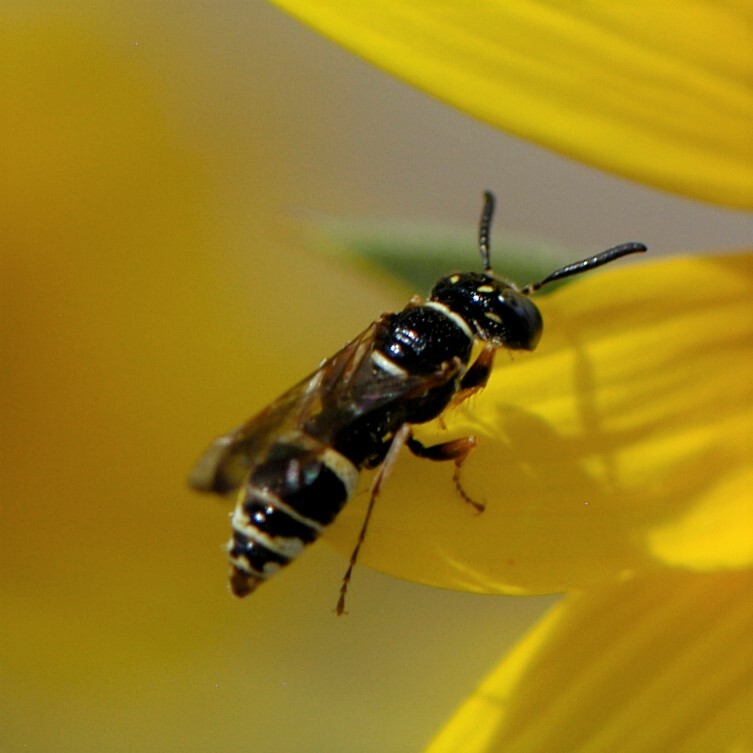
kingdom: Animalia
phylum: Arthropoda
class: Insecta
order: Hymenoptera
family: Crabronidae
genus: Philanthus
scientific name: Philanthus gibbosus
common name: Humped beewolf
